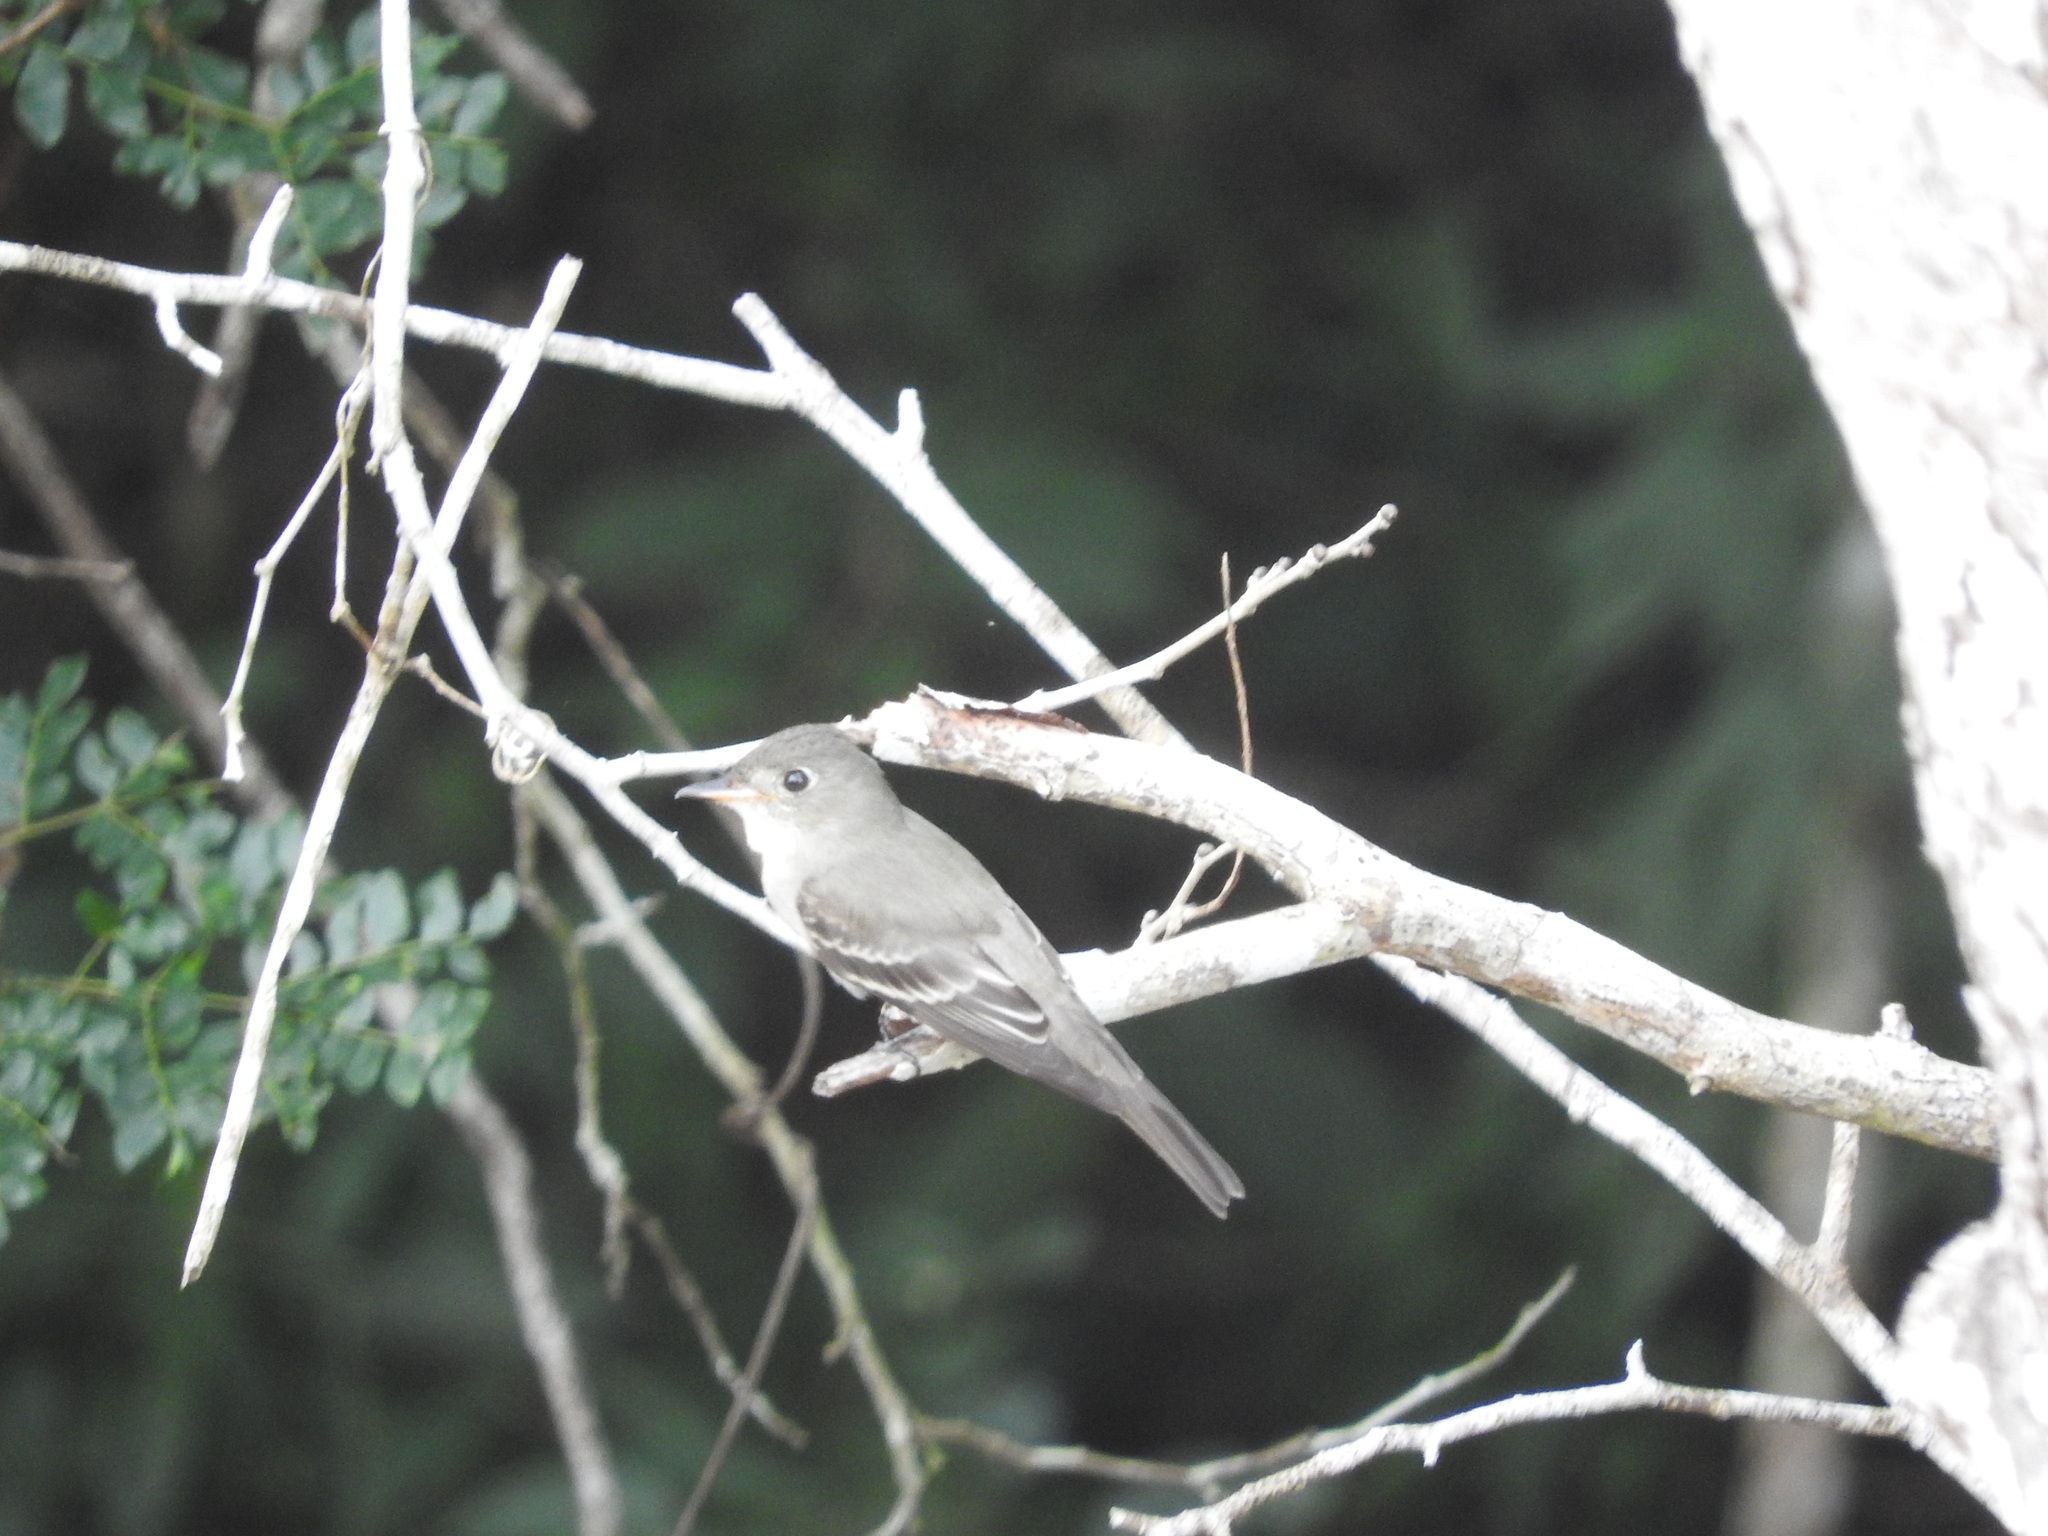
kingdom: Animalia
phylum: Chordata
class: Aves
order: Passeriformes
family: Tyrannidae
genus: Contopus
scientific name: Contopus cinereus
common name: Tropical pewee
